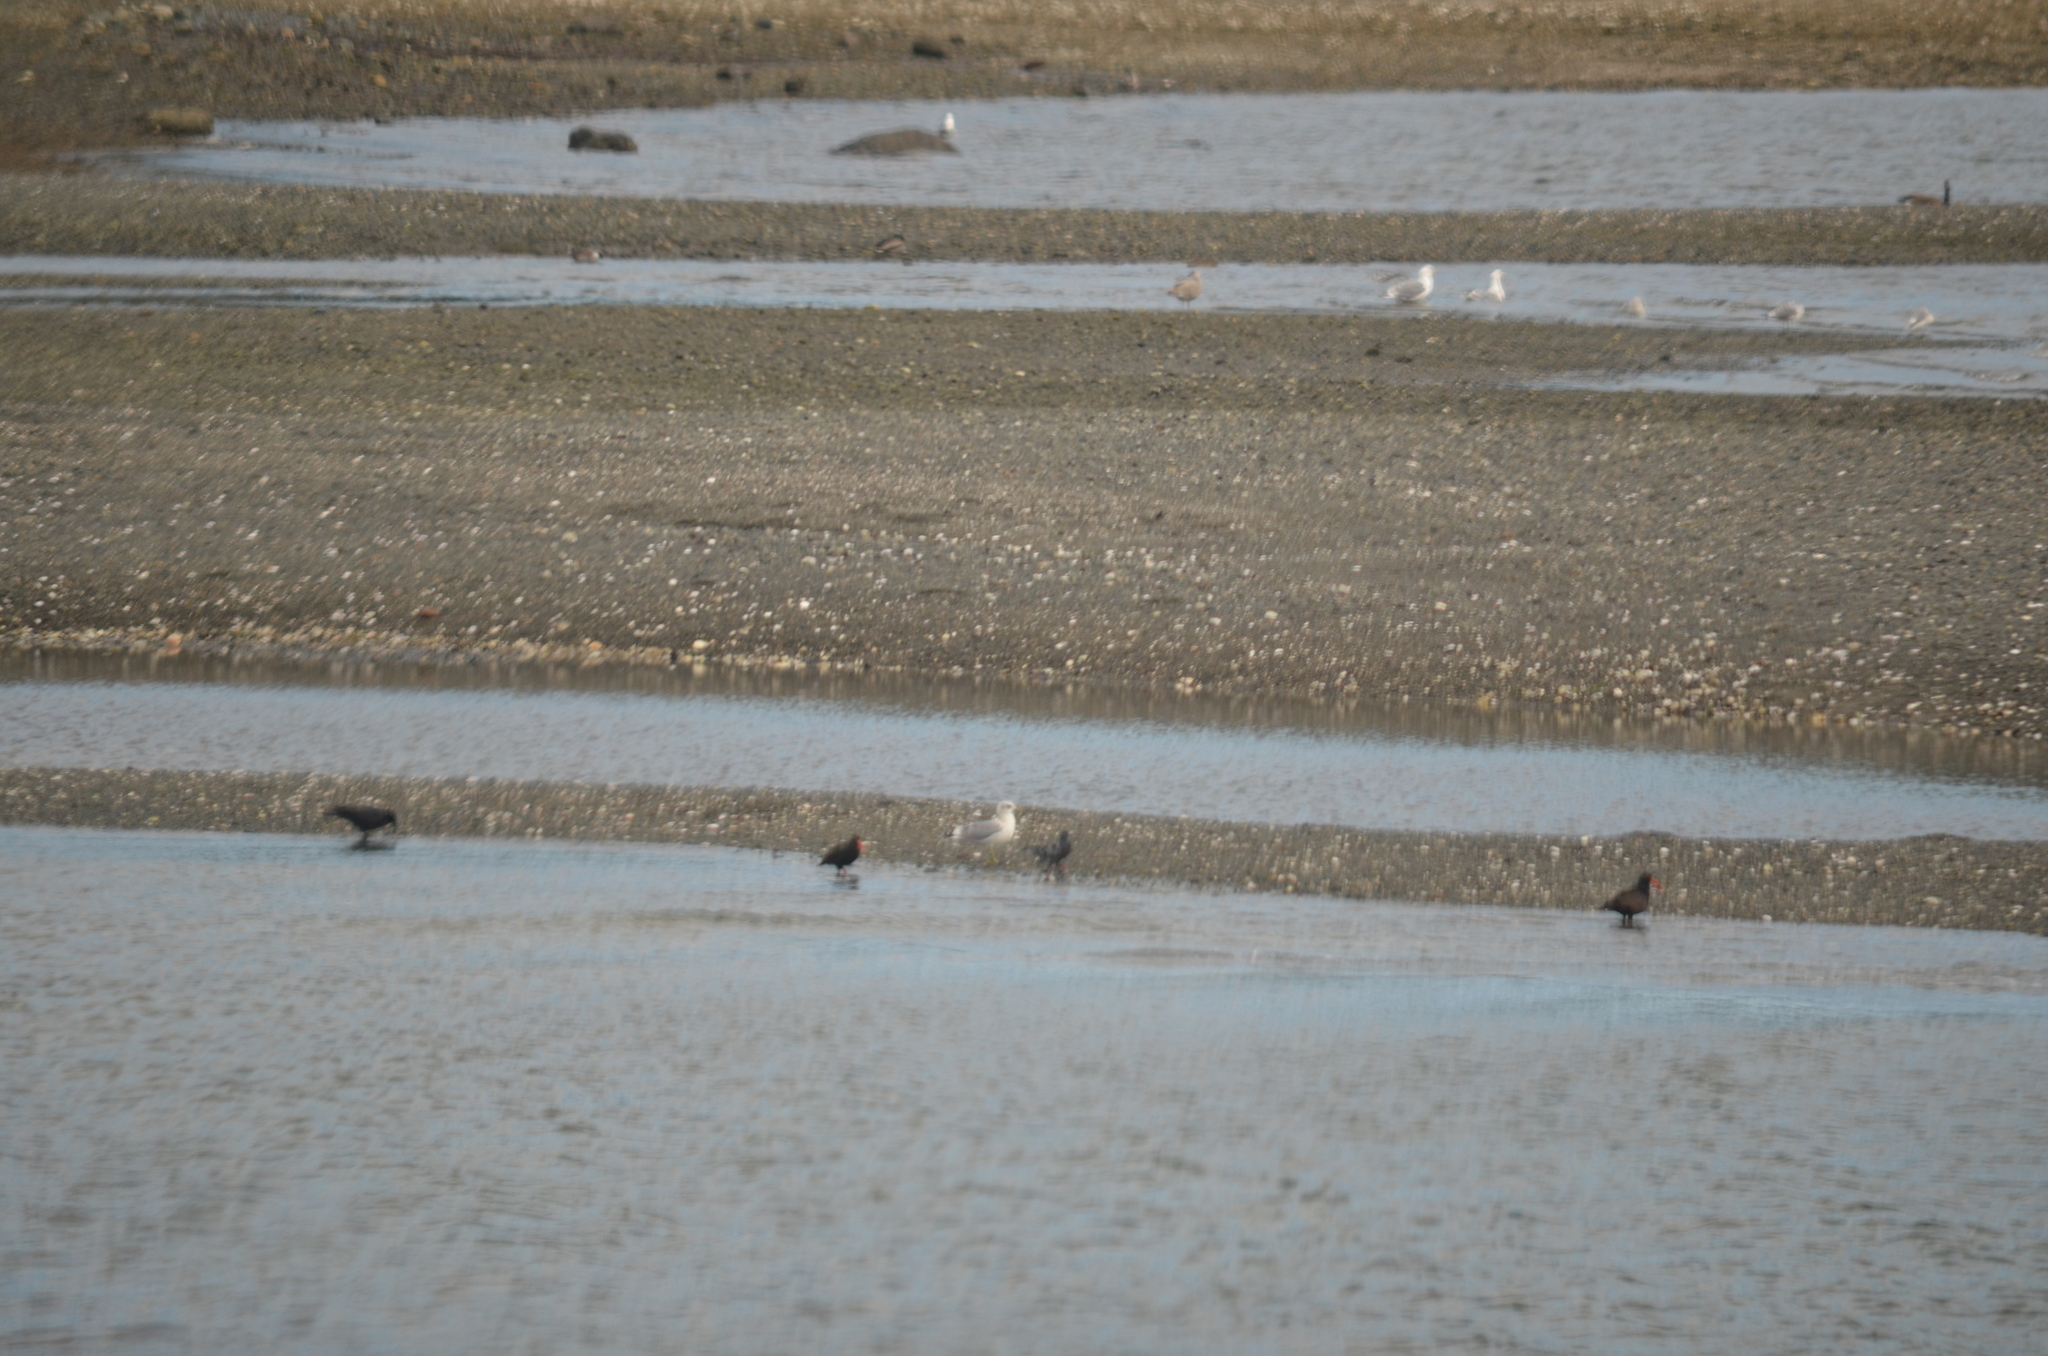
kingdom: Animalia
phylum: Chordata
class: Aves
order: Columbiformes
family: Columbidae
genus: Columba
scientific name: Columba livia
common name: Rock pigeon
